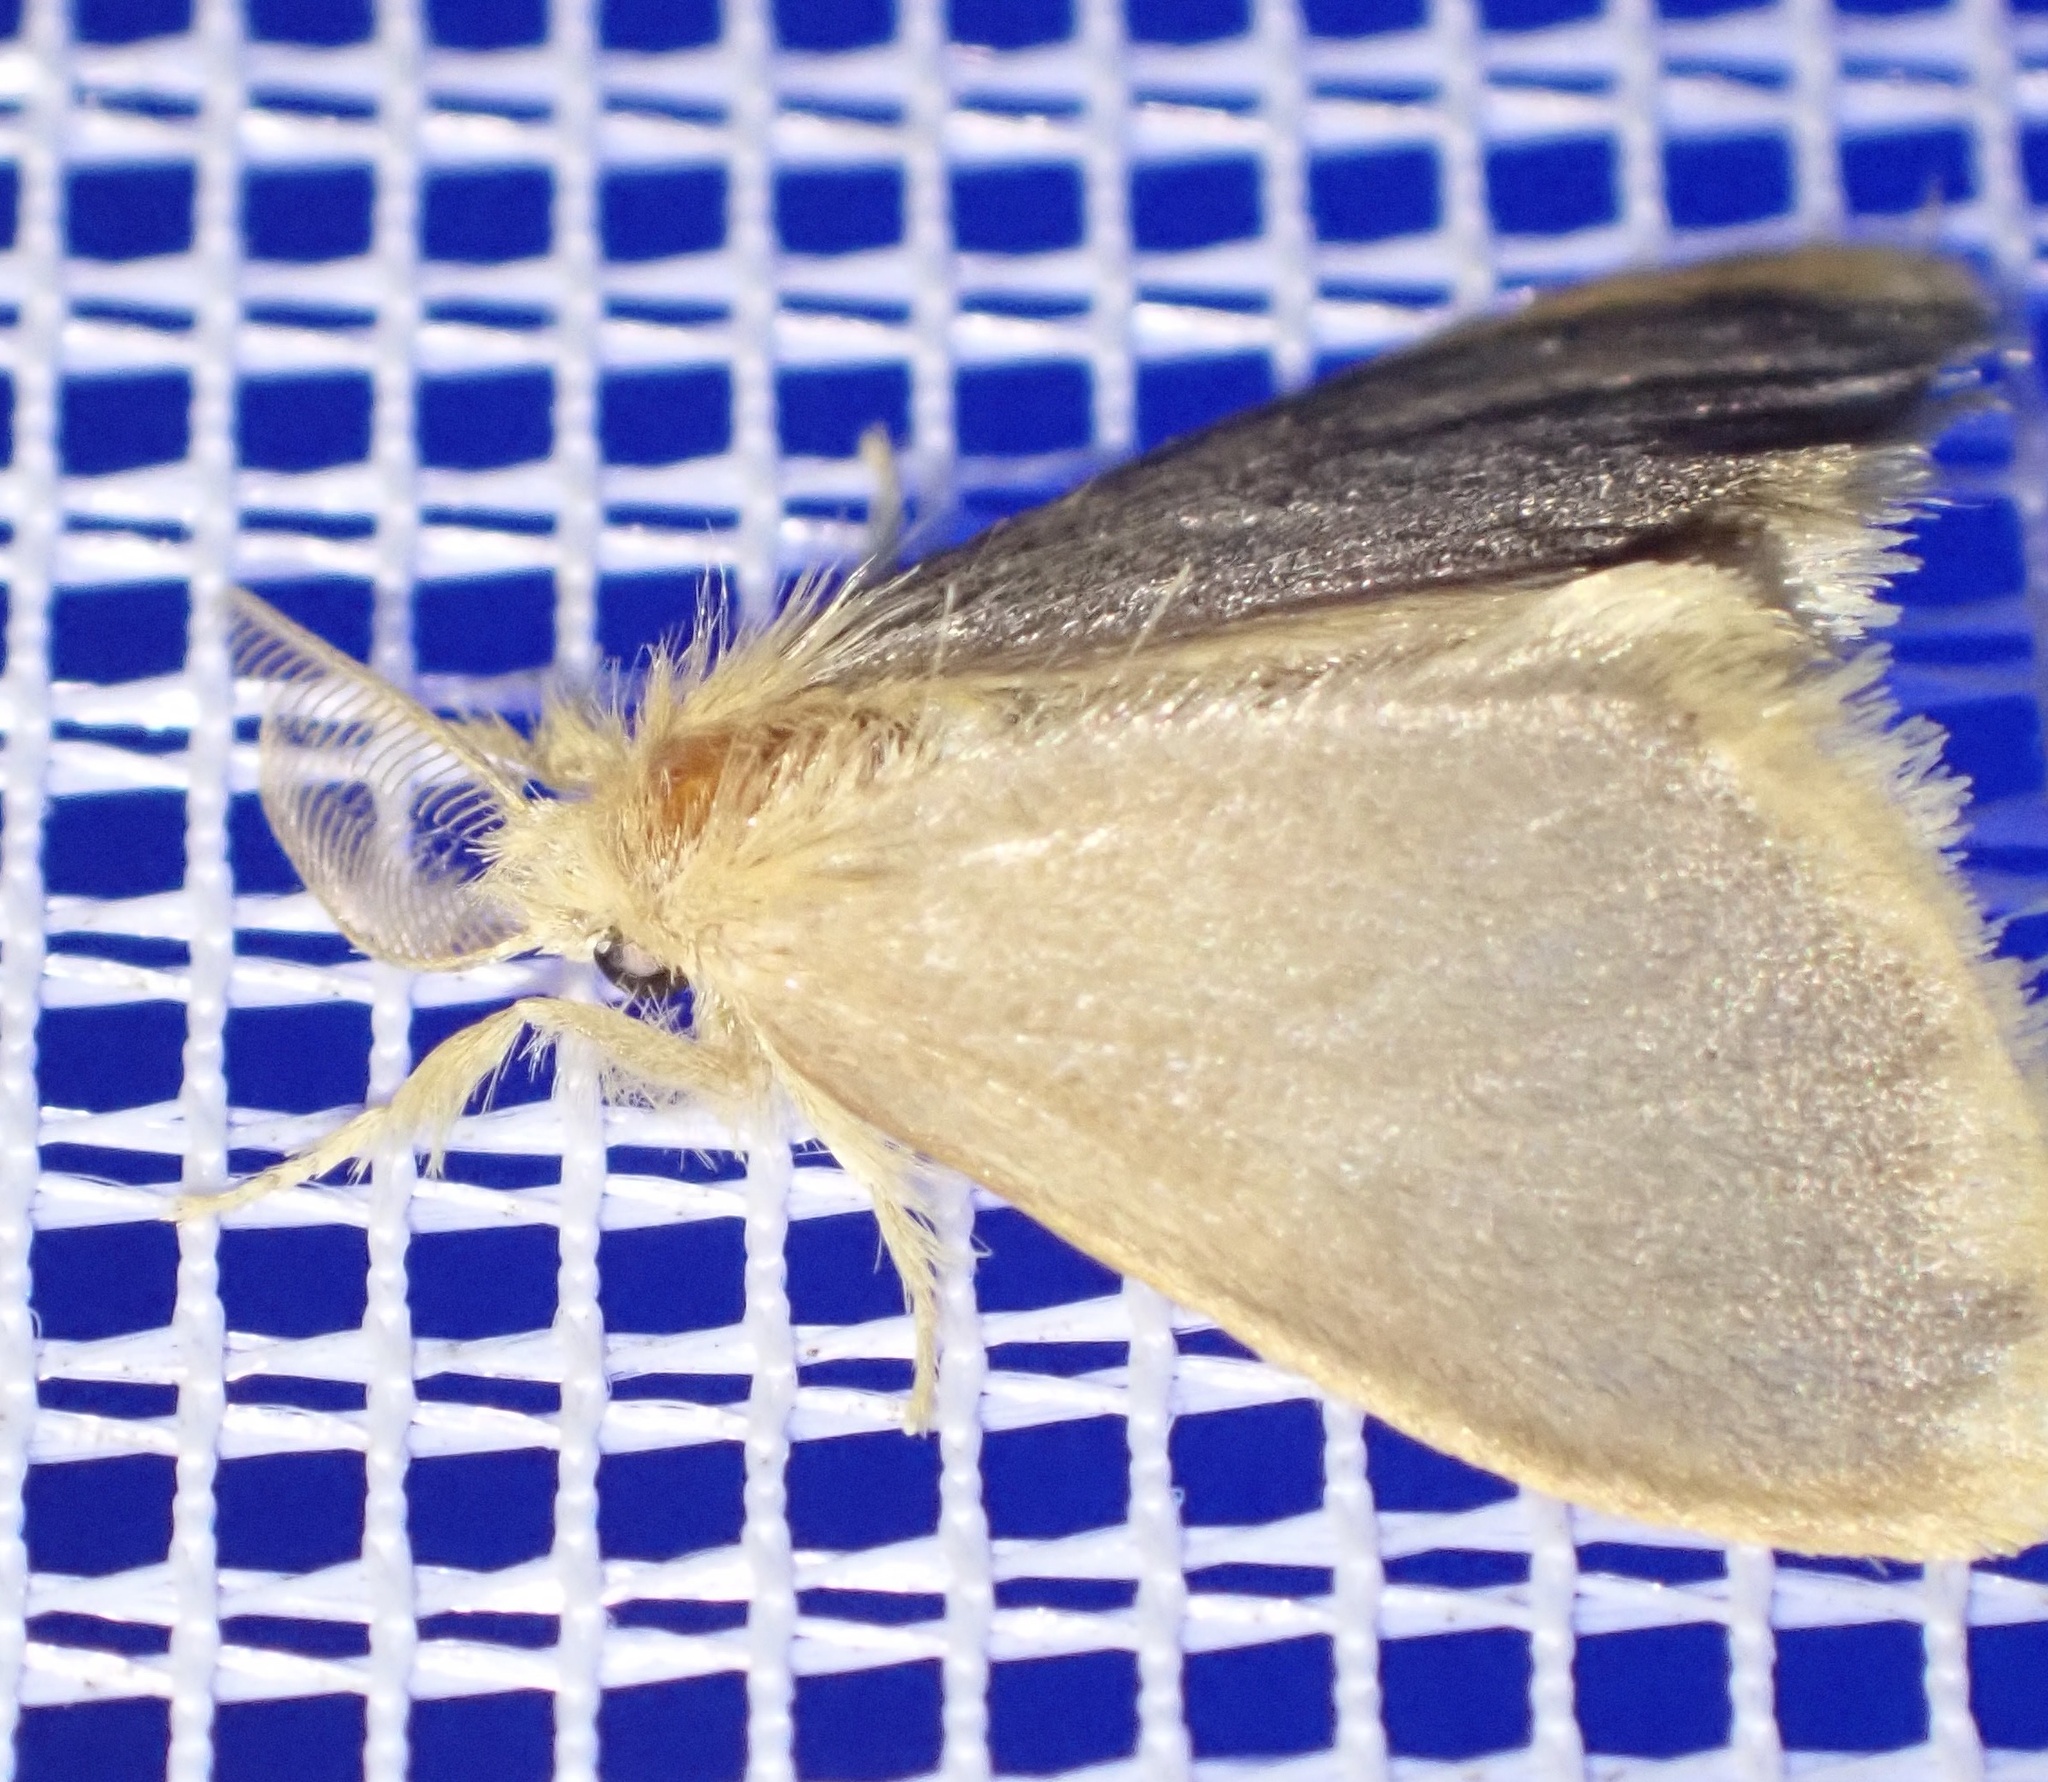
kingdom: Animalia
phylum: Arthropoda
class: Insecta
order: Lepidoptera
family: Erebidae
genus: Euproctis
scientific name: Euproctis fimbriata
